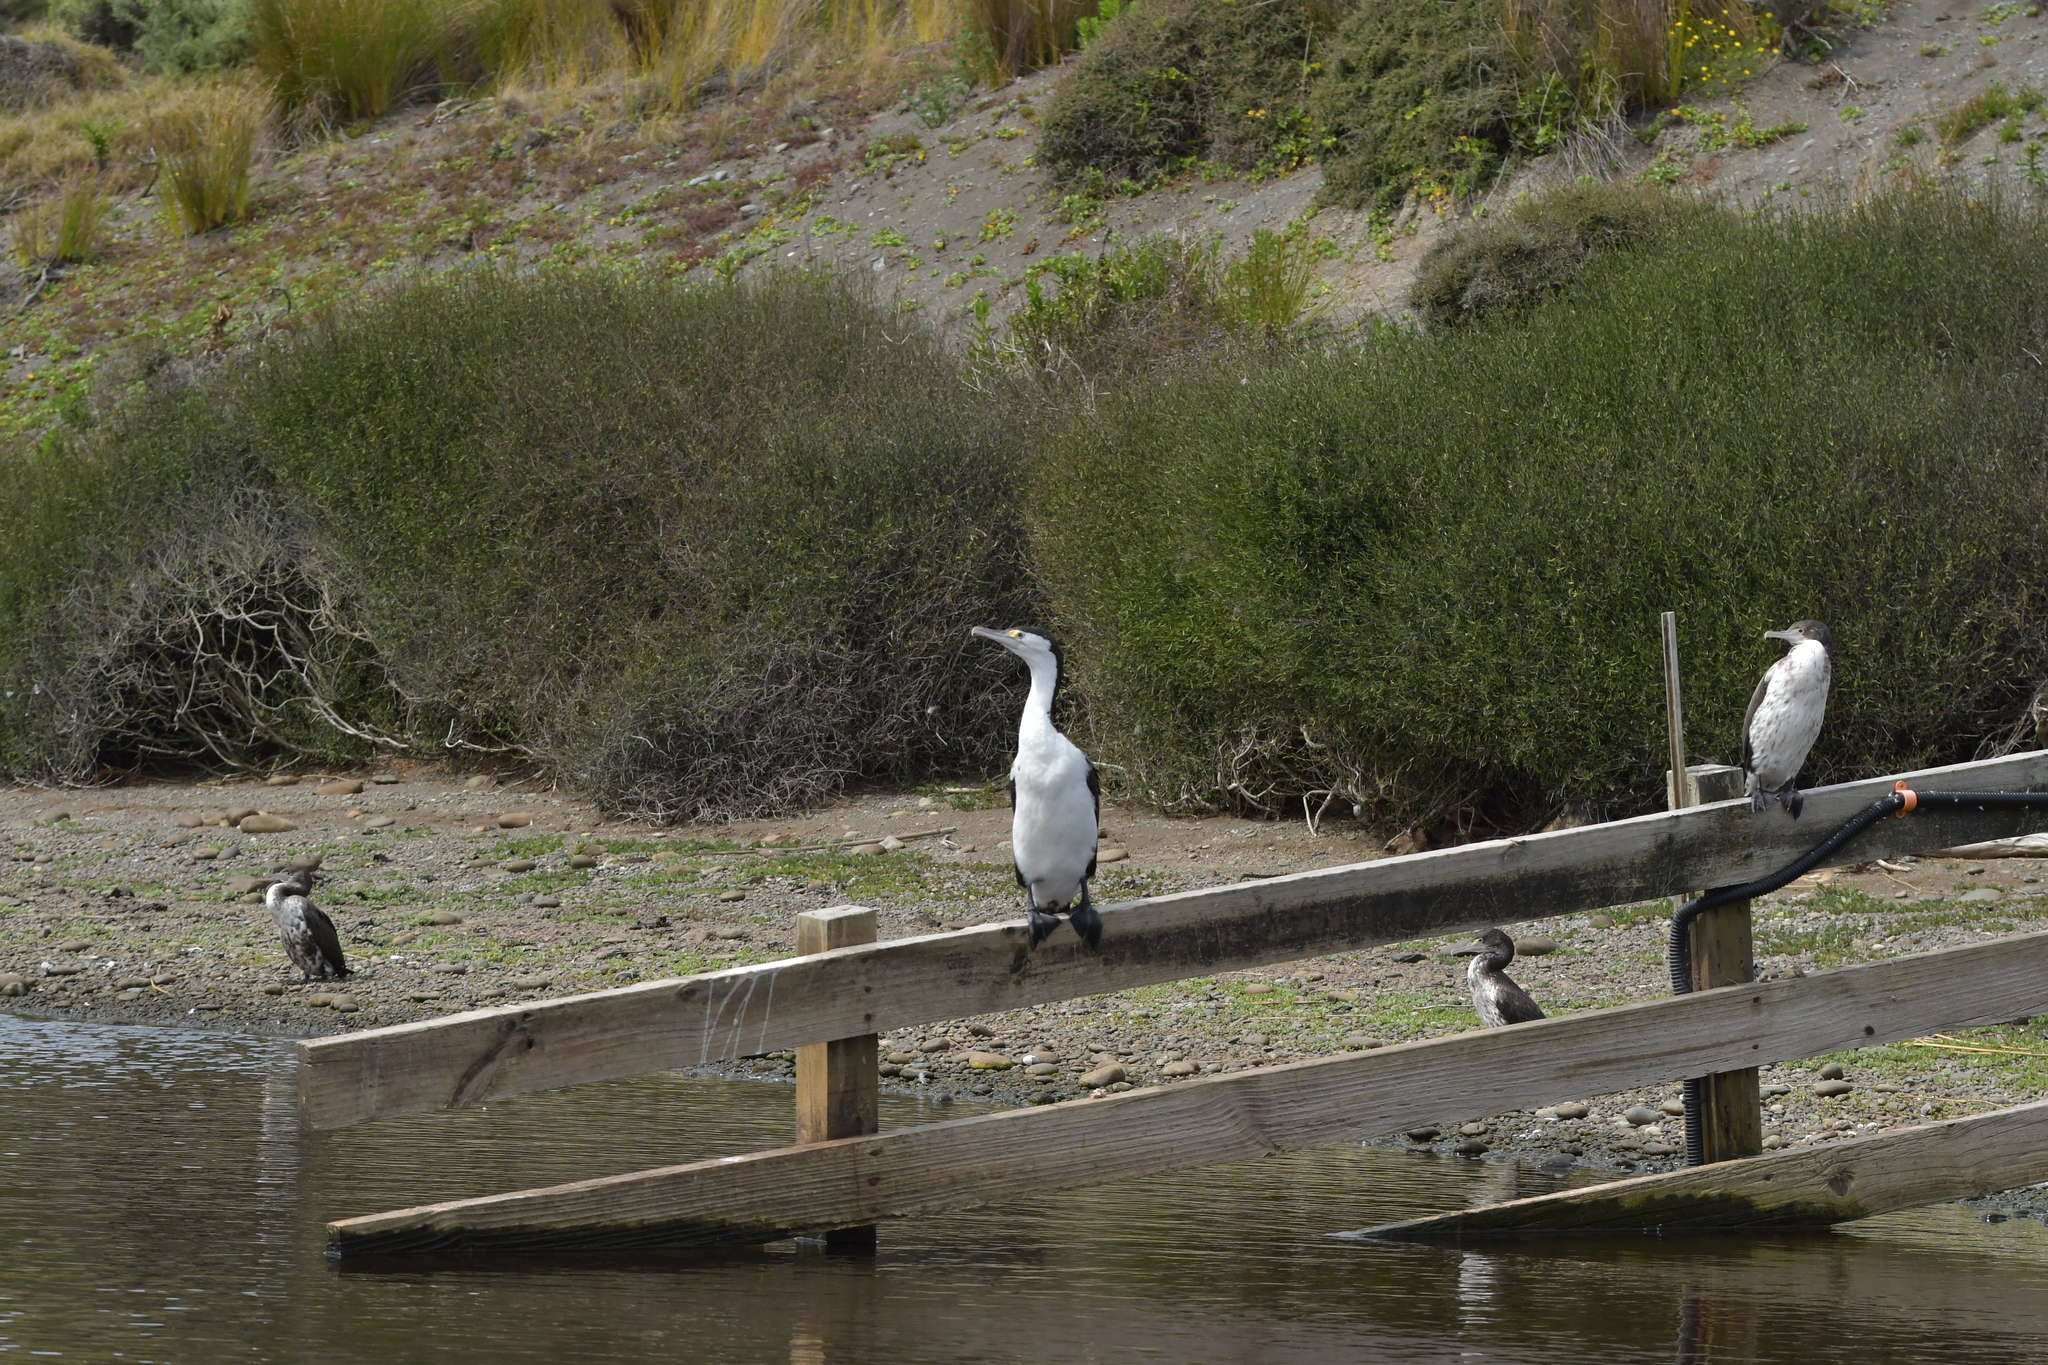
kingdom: Animalia
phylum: Chordata
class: Aves
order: Suliformes
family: Phalacrocoracidae
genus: Phalacrocorax
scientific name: Phalacrocorax varius
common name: Pied cormorant
